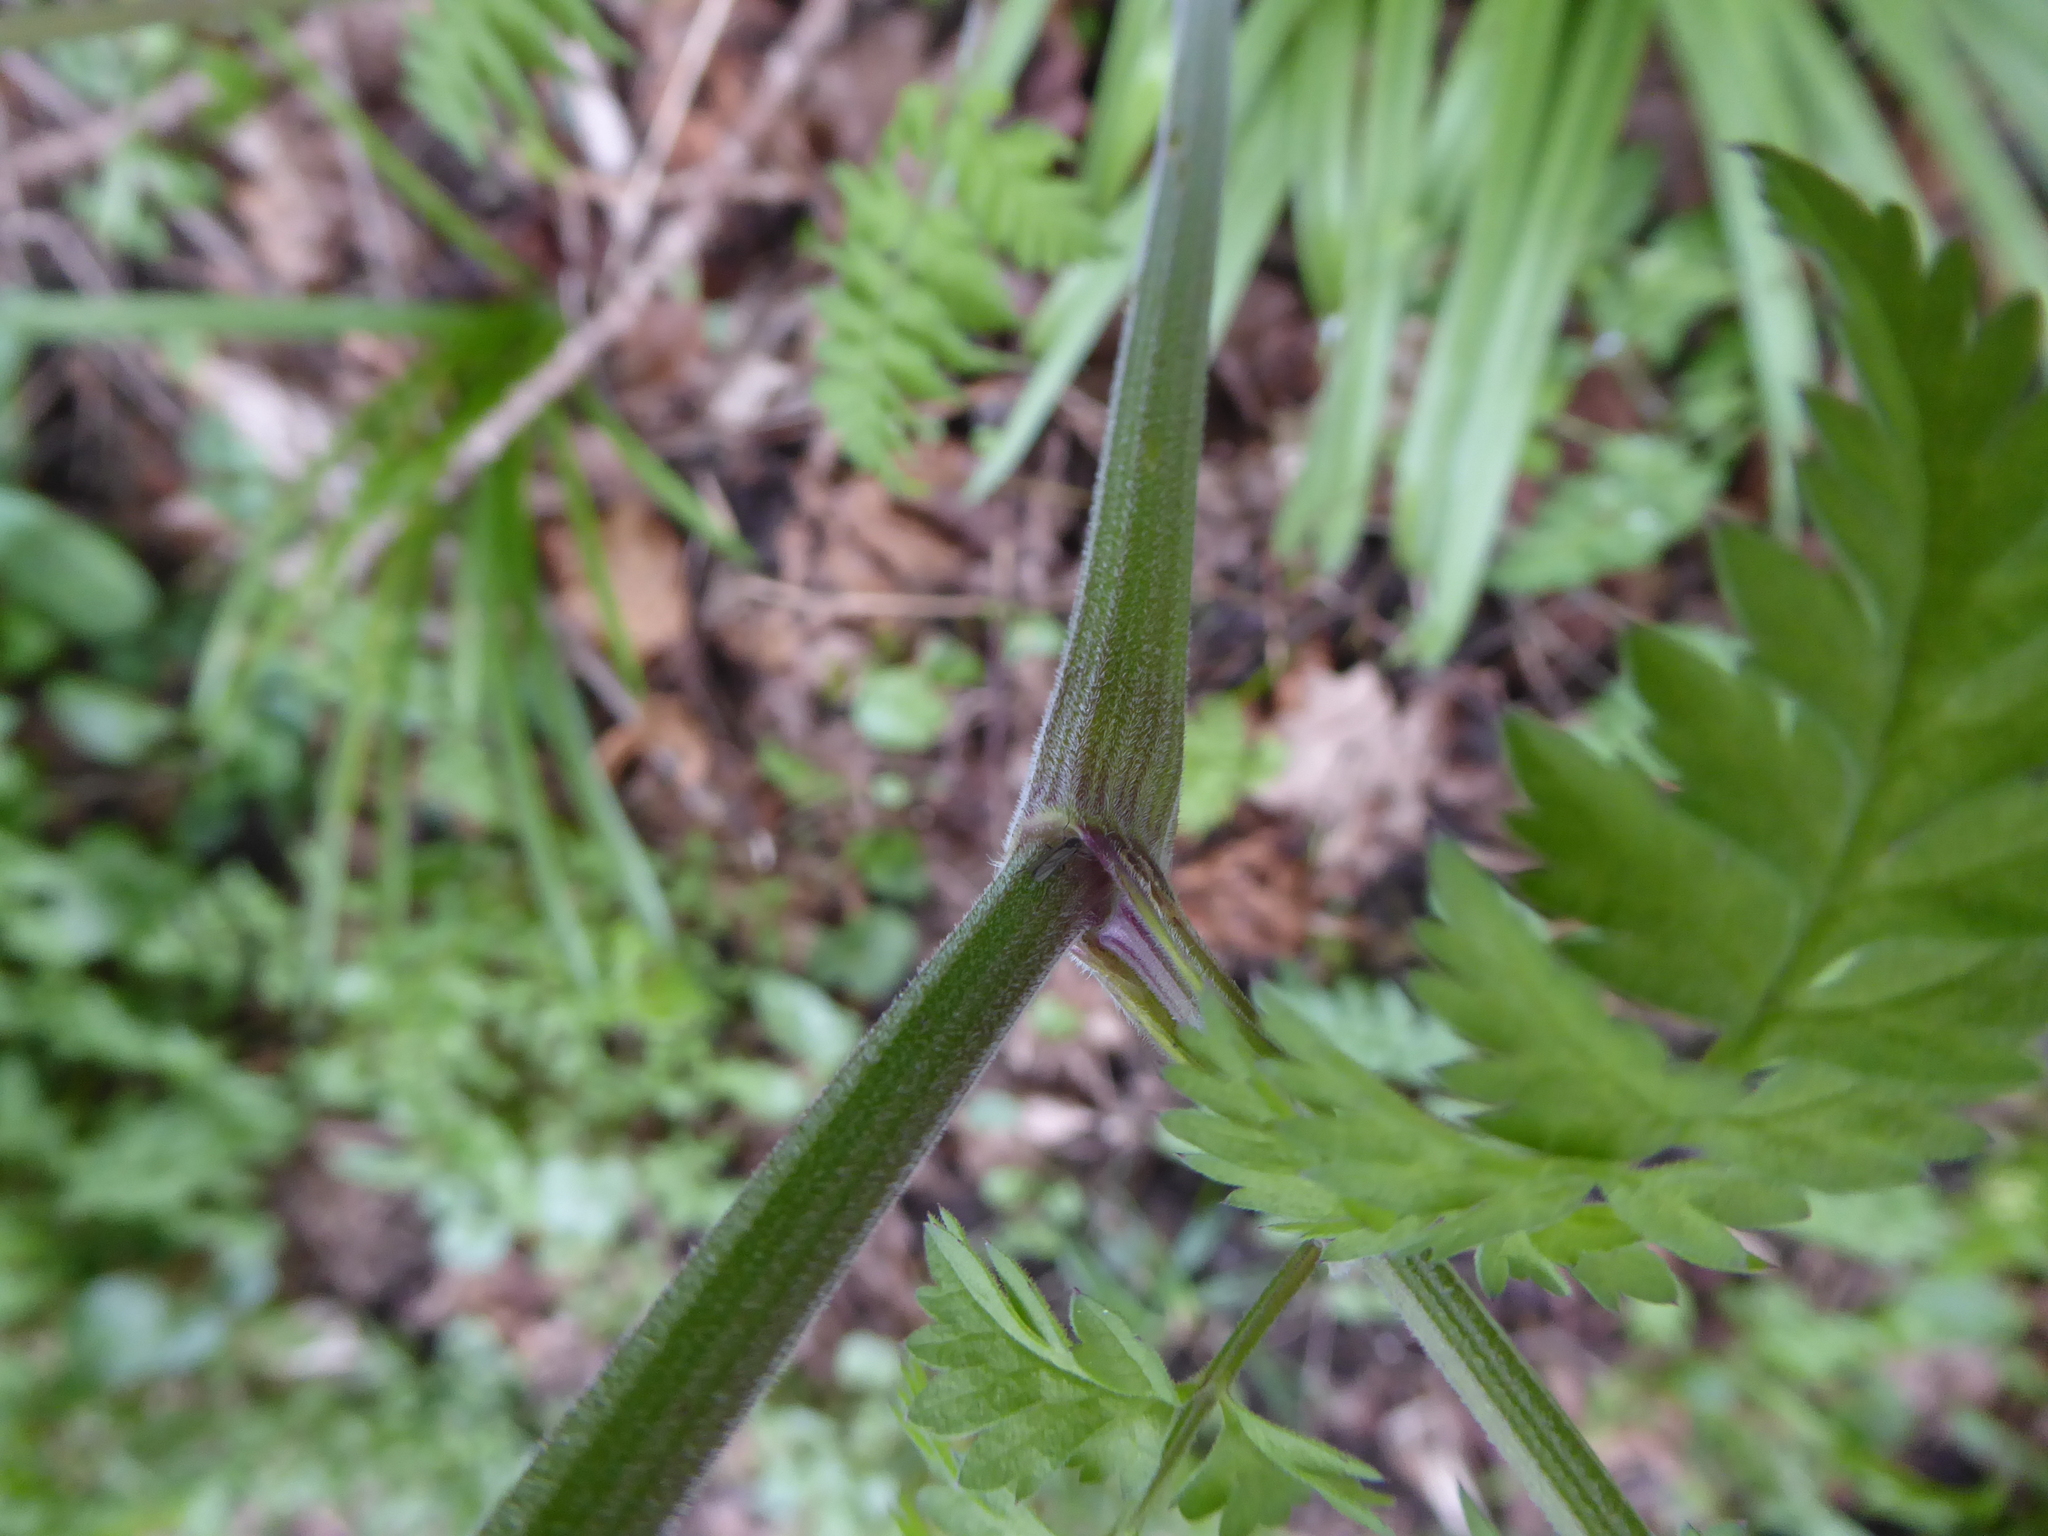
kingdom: Plantae
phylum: Tracheophyta
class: Magnoliopsida
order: Apiales
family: Apiaceae
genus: Anthriscus
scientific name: Anthriscus sylvestris
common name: Cow parsley
